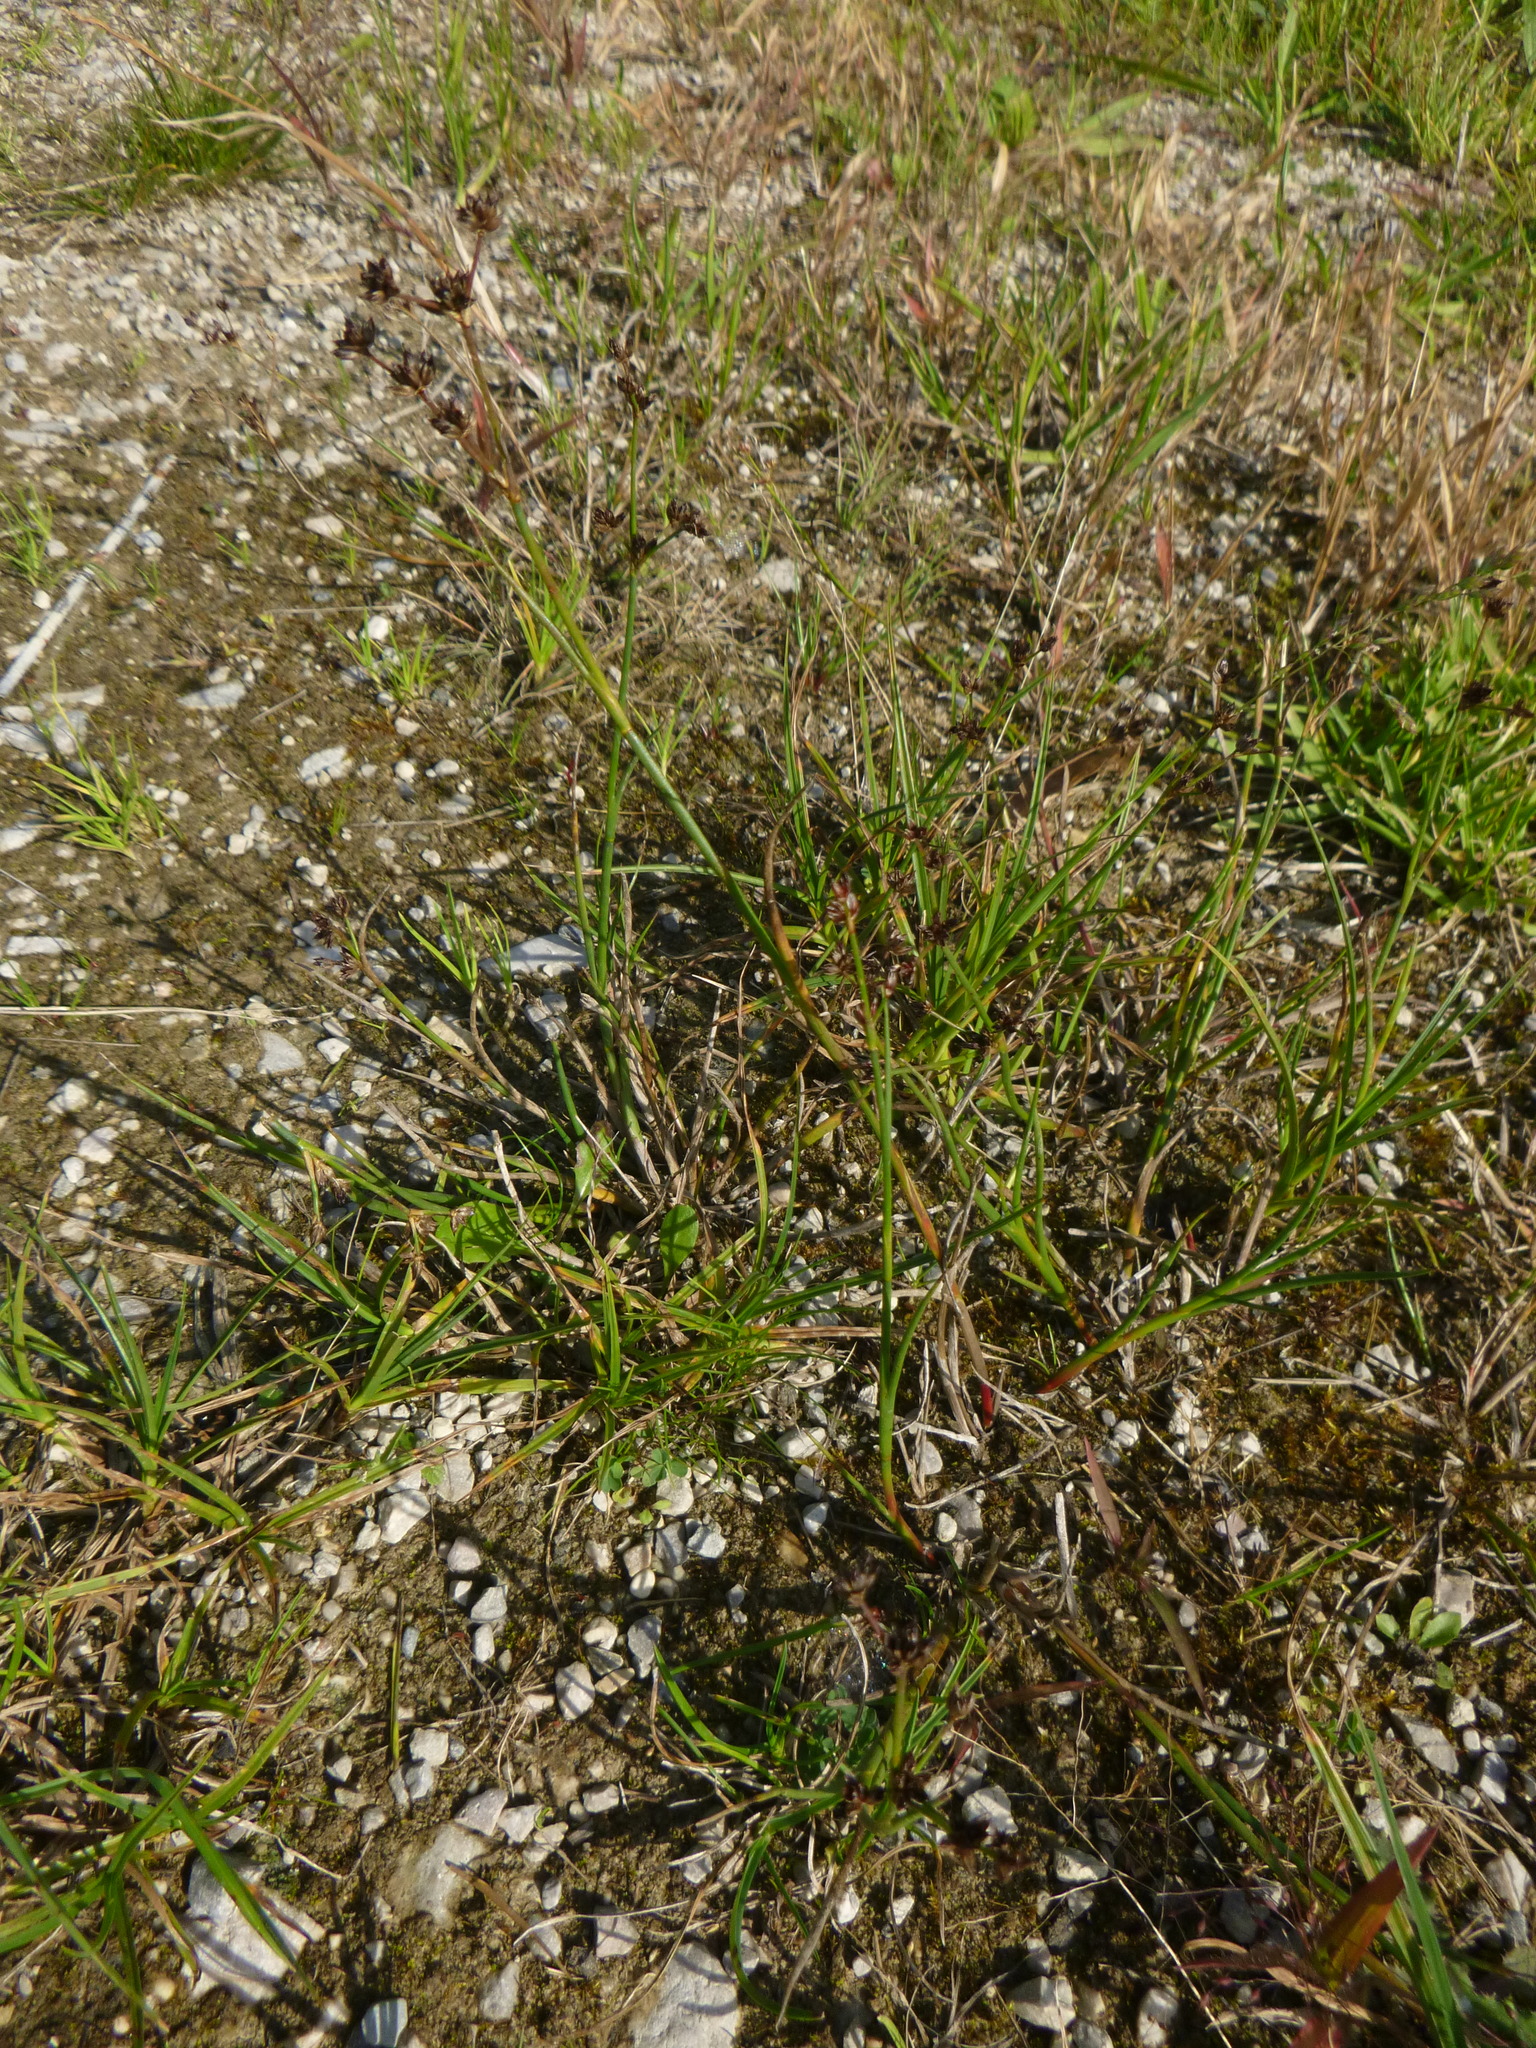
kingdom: Plantae
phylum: Tracheophyta
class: Liliopsida
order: Poales
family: Juncaceae
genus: Juncus
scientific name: Juncus articulatus
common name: Jointed rush
